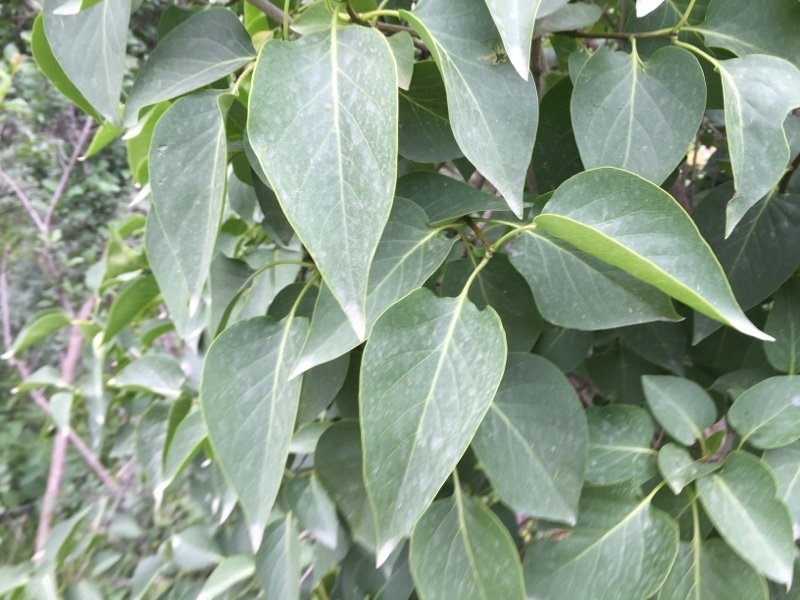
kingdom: Plantae
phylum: Tracheophyta
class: Magnoliopsida
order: Lamiales
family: Oleaceae
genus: Syringa
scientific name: Syringa vulgaris
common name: Common lilac
